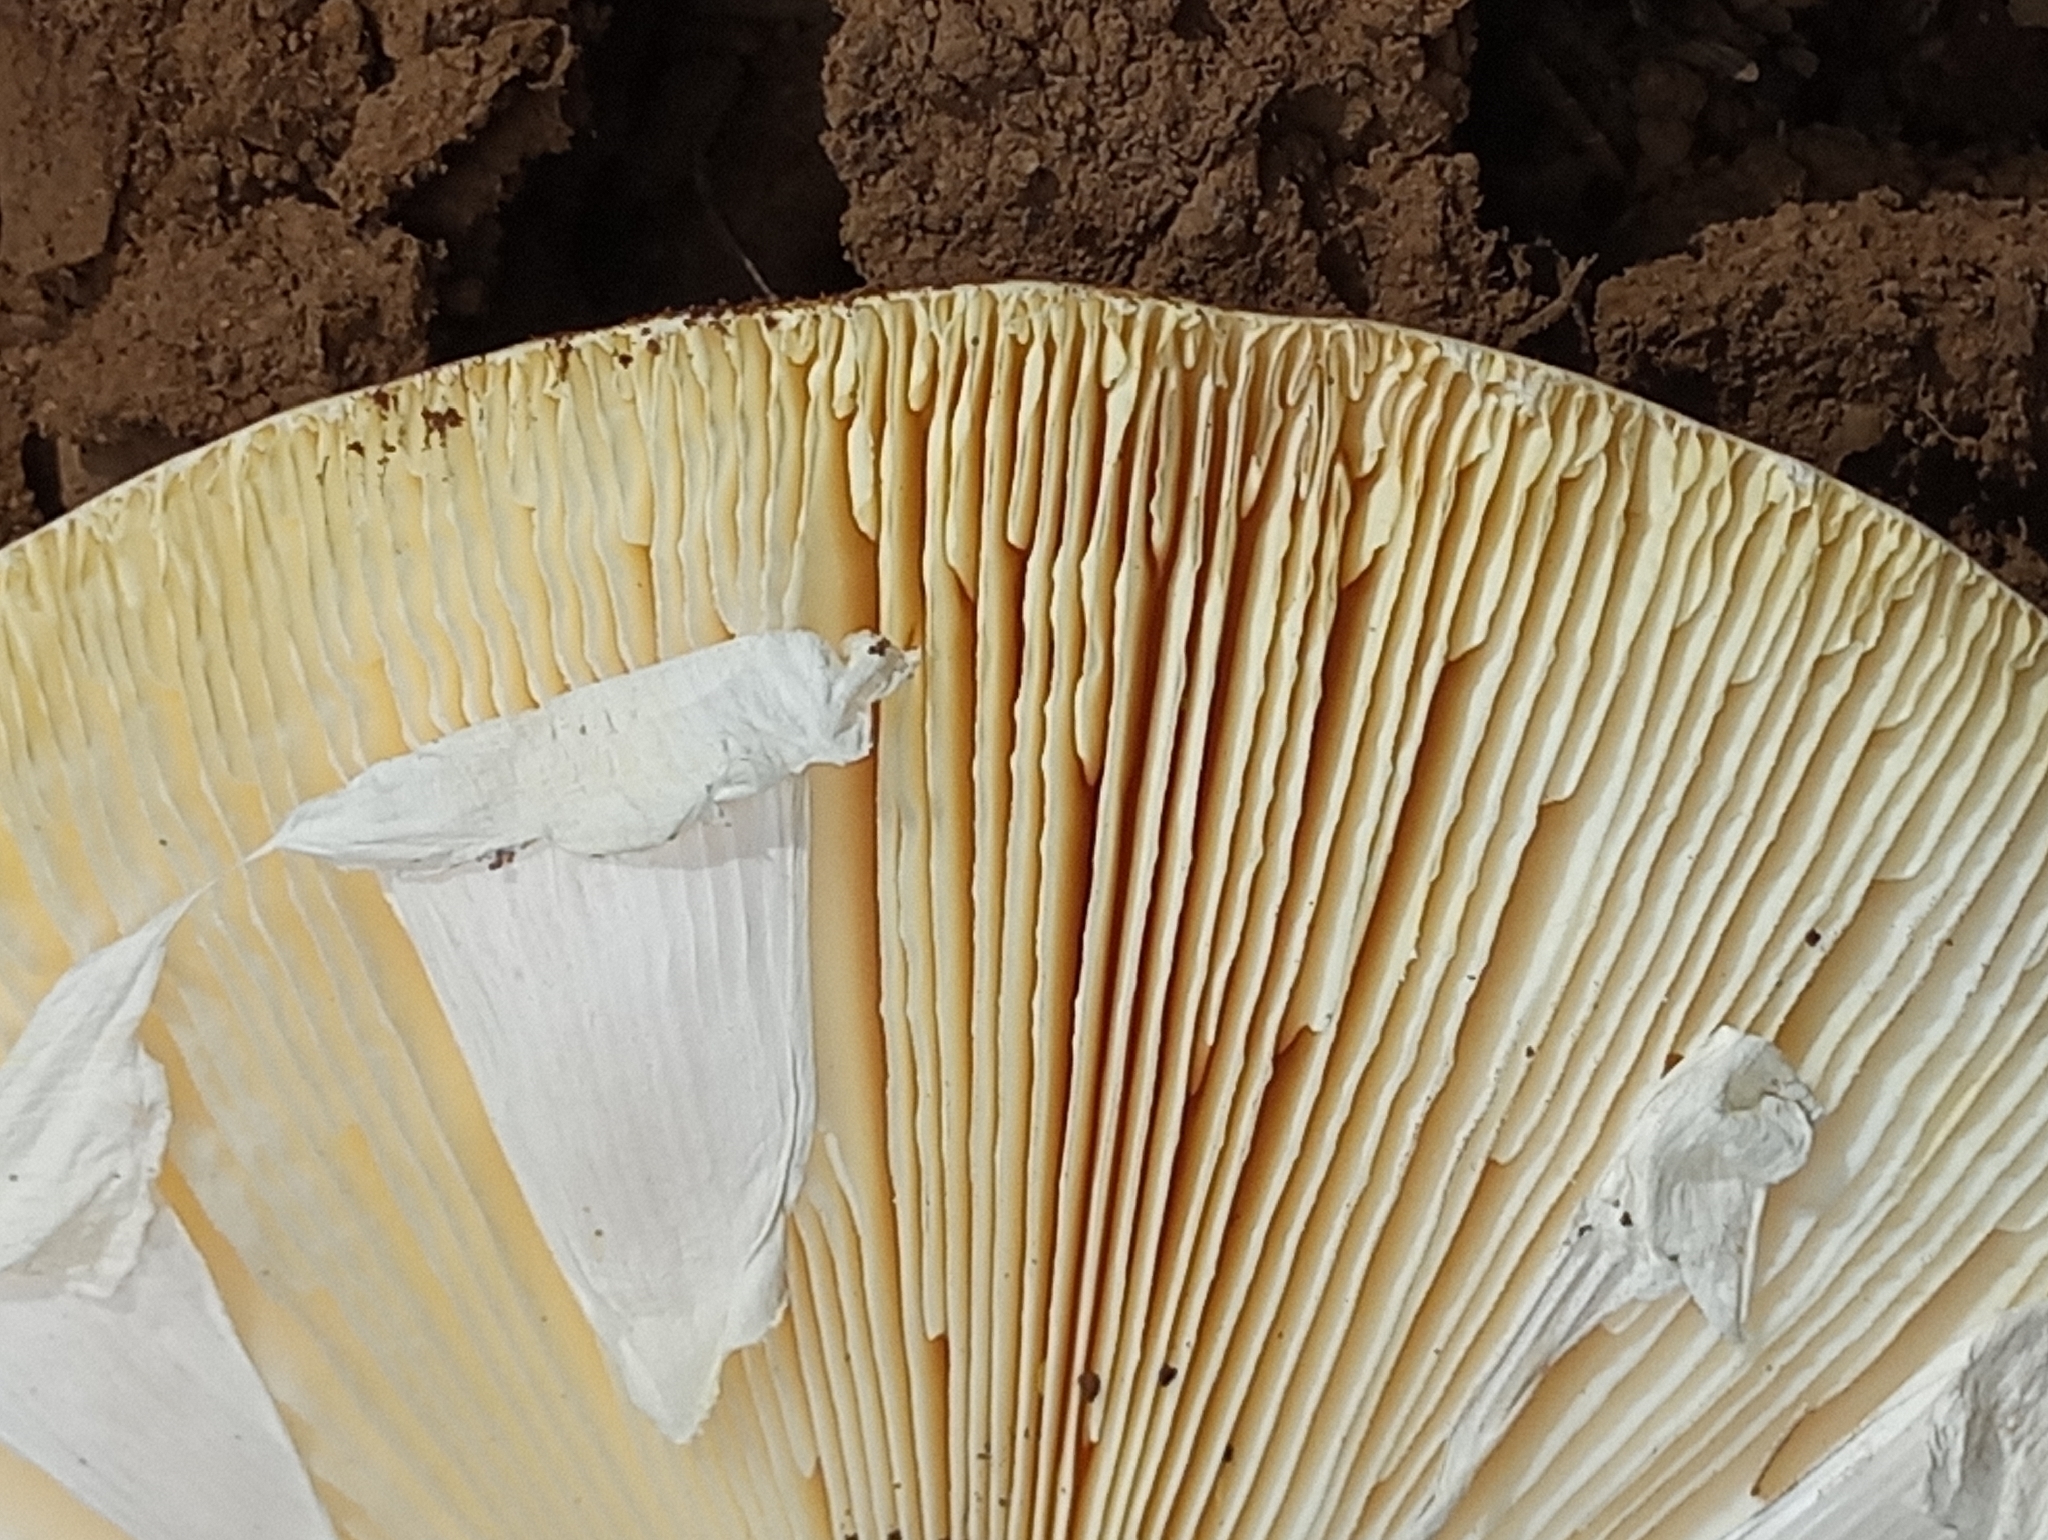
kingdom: Fungi
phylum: Basidiomycota
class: Agaricomycetes
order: Agaricales
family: Amanitaceae
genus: Amanita
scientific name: Amanita vernicoccora
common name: Spring coccora
